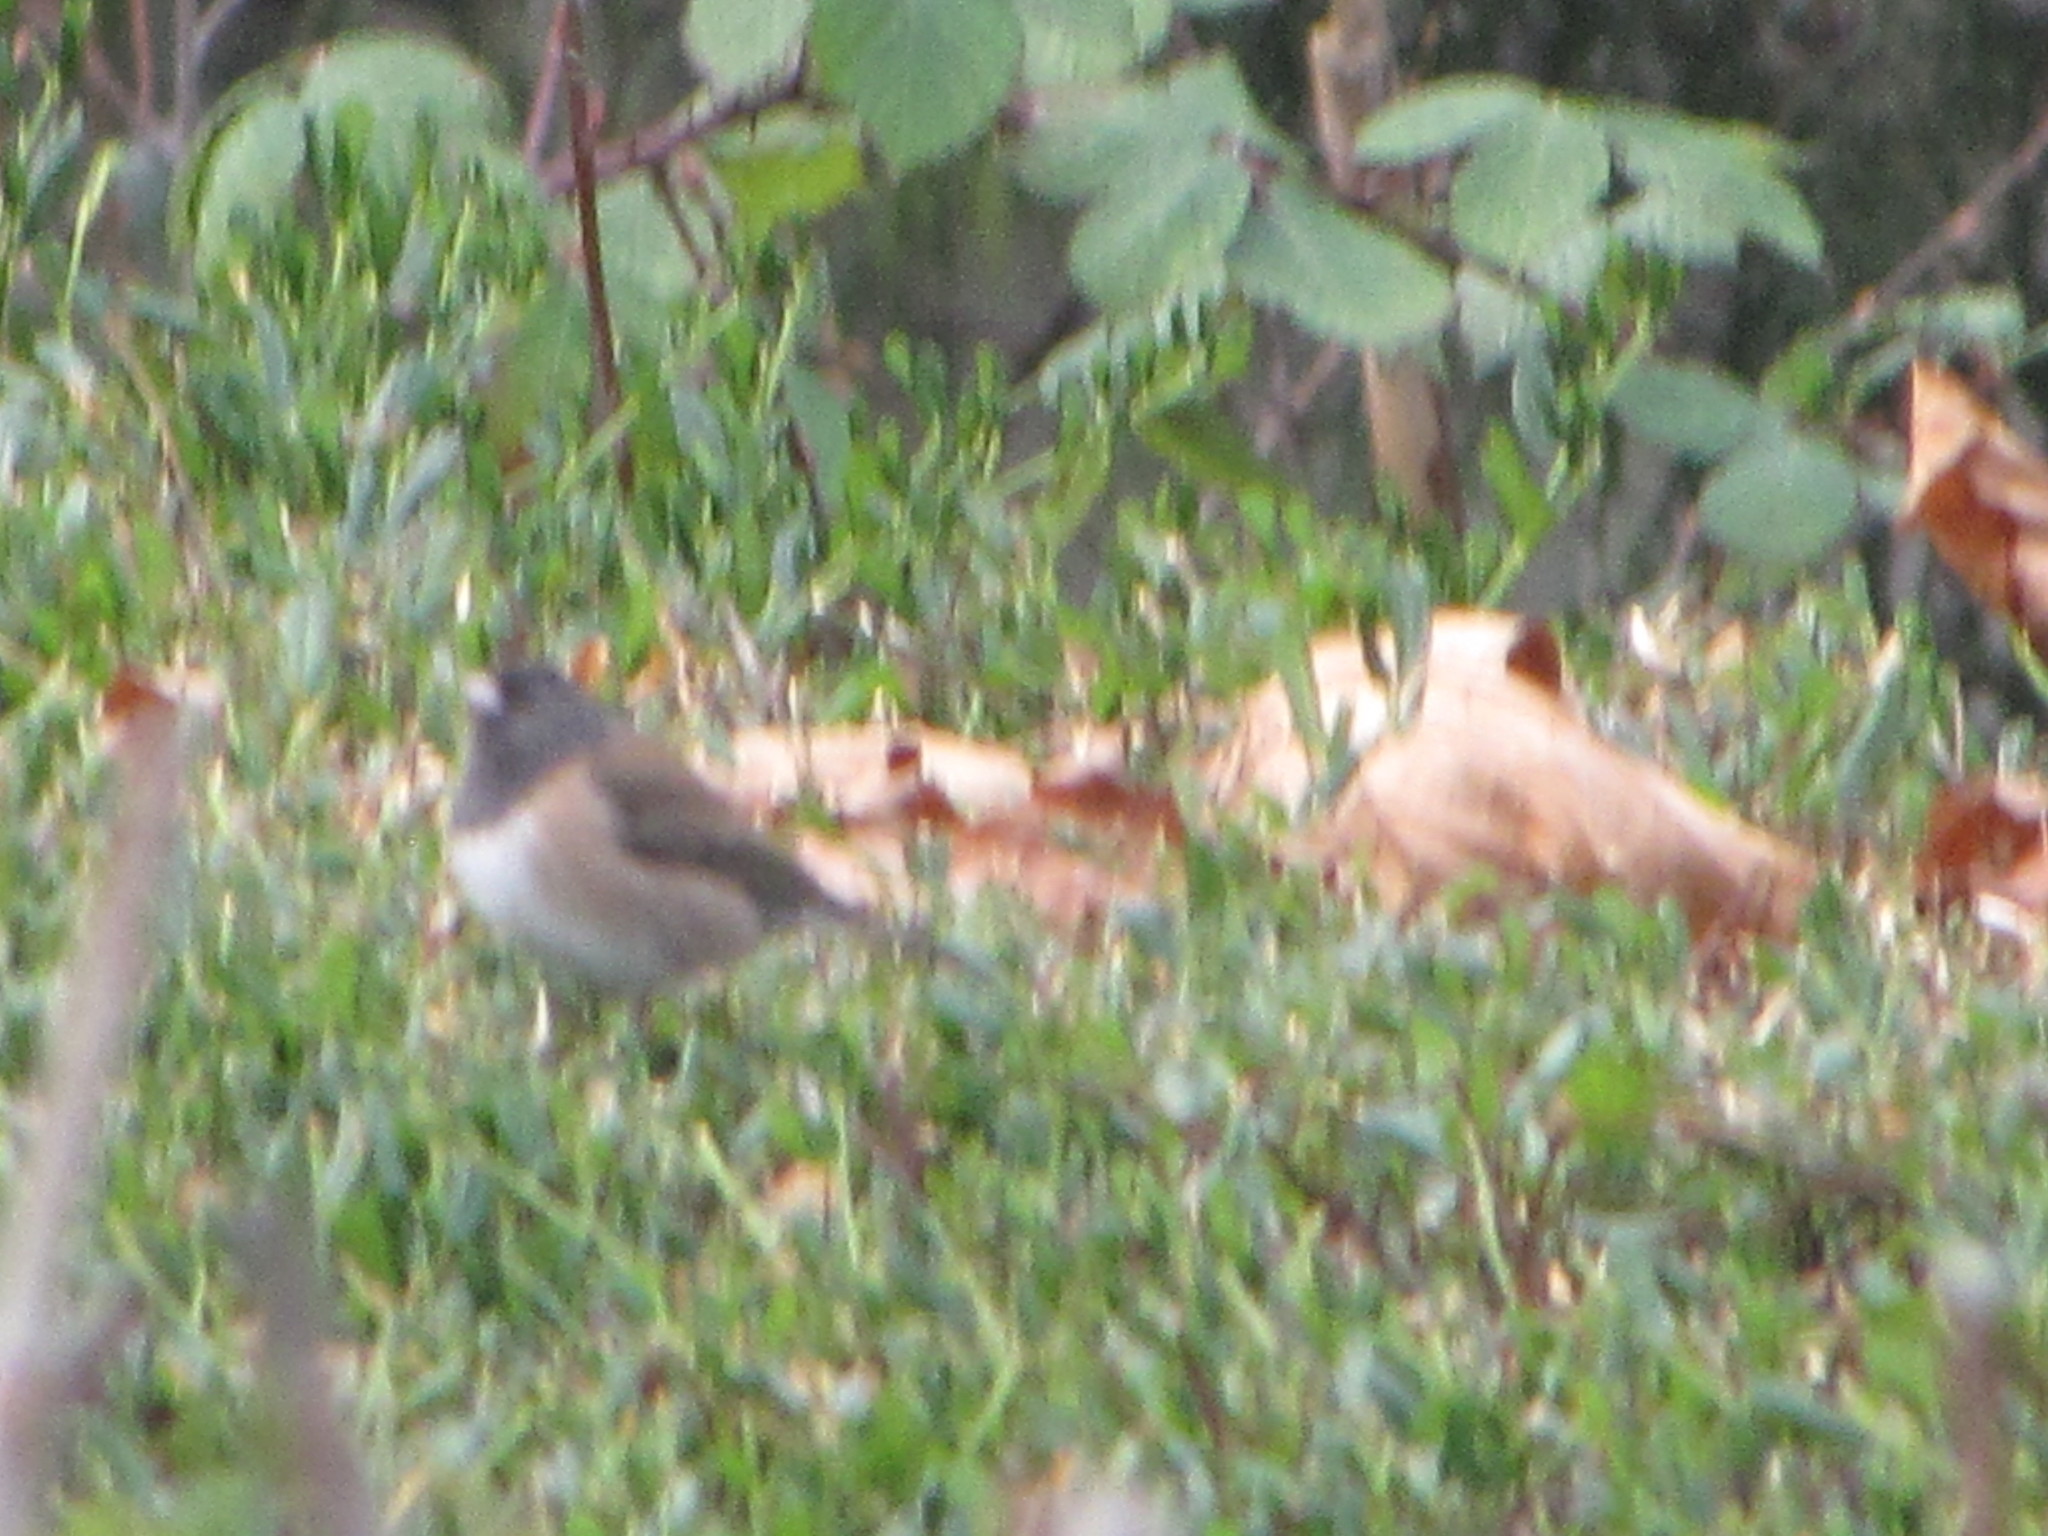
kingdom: Animalia
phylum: Chordata
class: Aves
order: Passeriformes
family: Passerellidae
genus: Junco
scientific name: Junco hyemalis
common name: Dark-eyed junco
